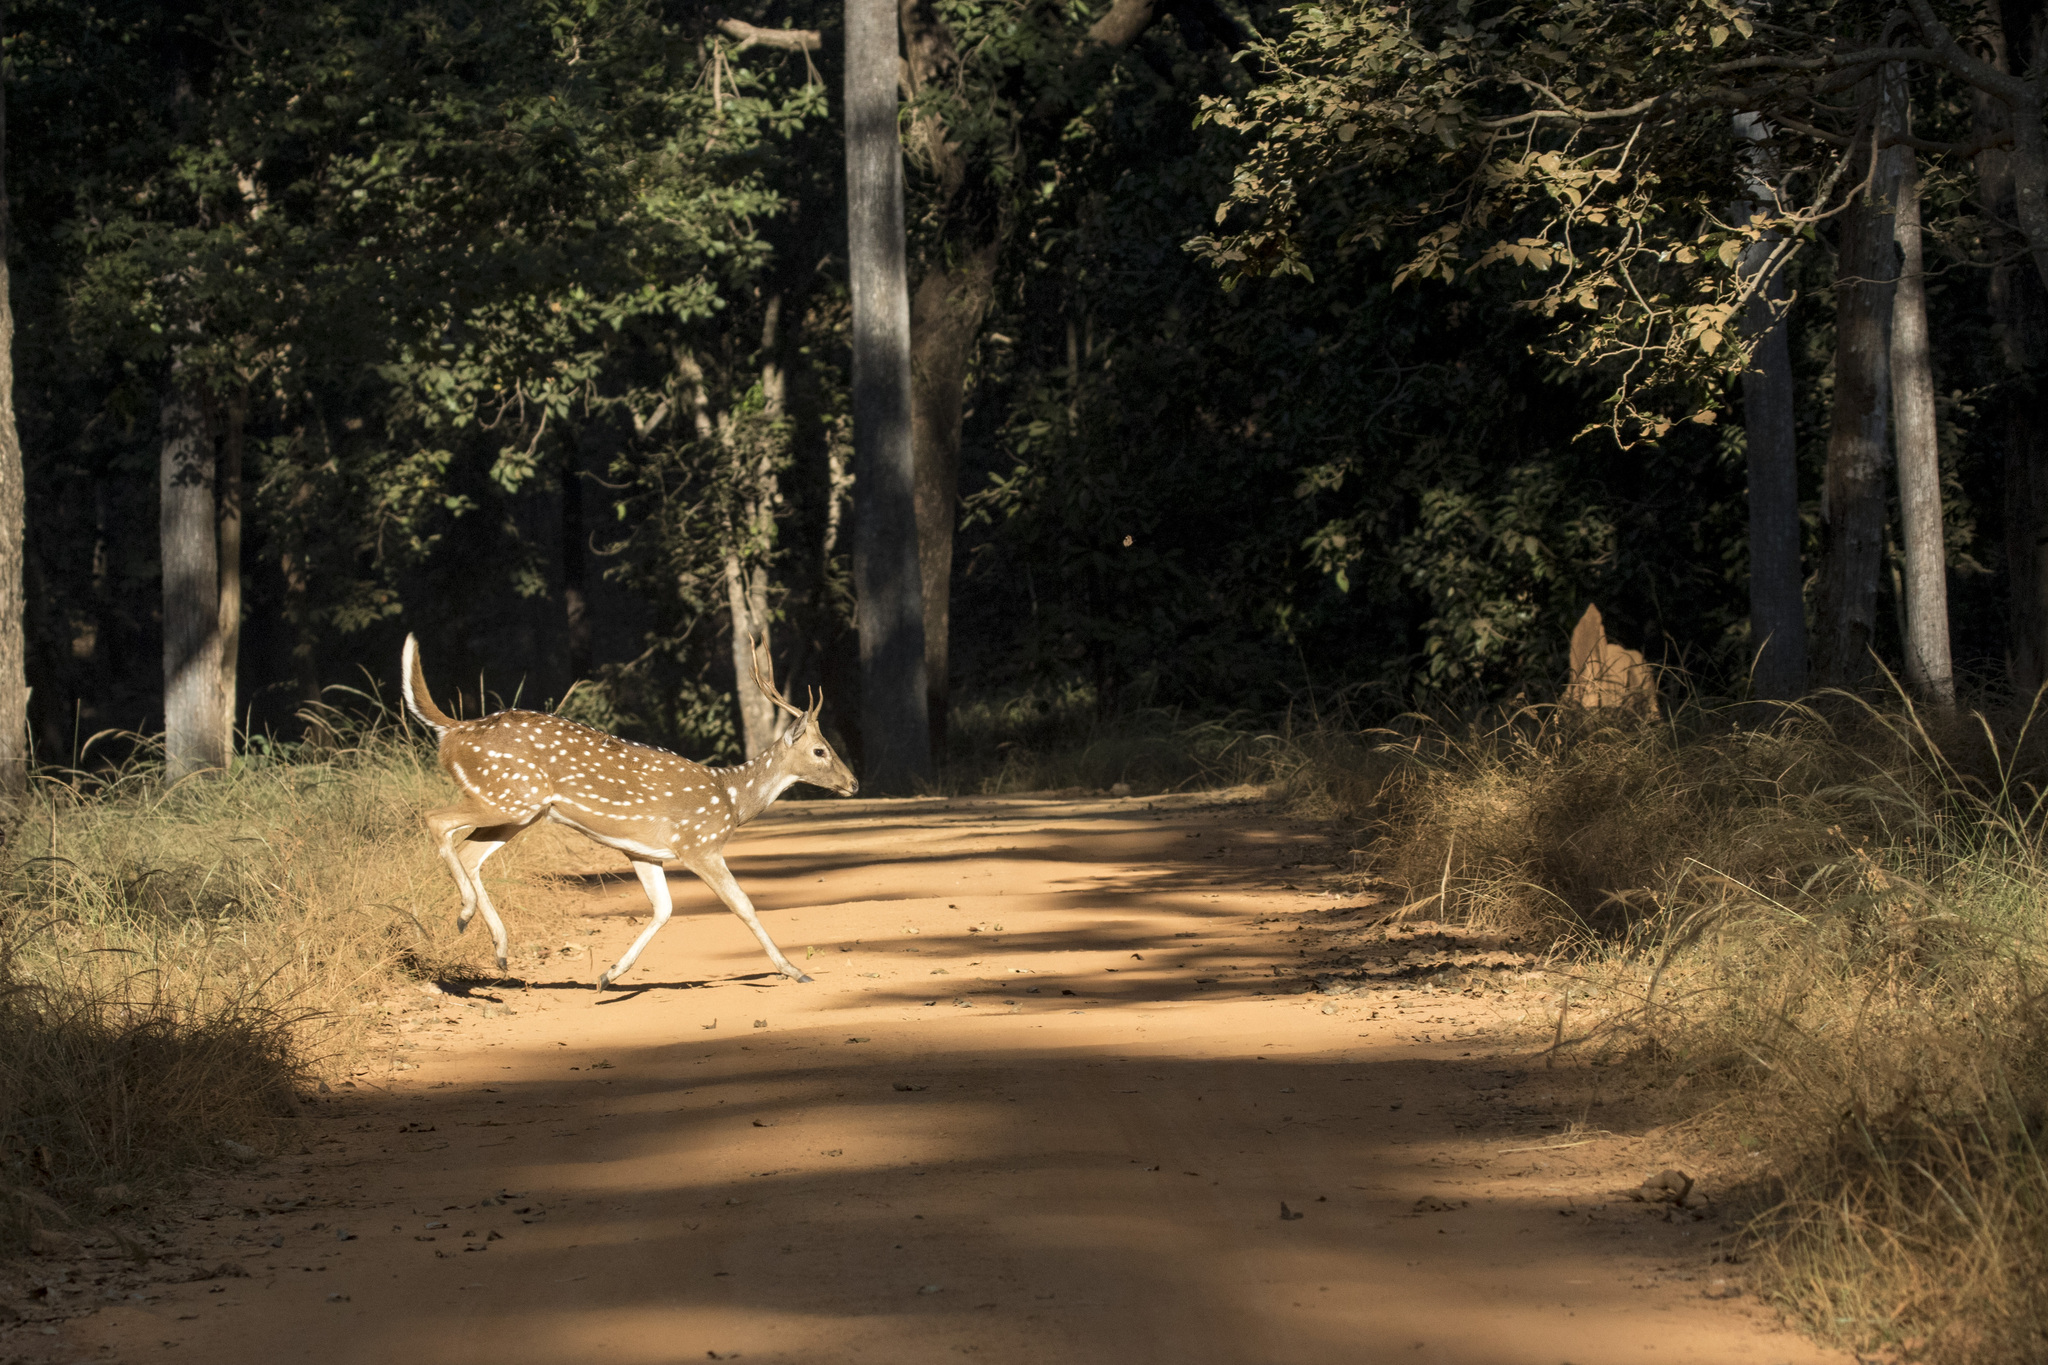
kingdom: Animalia
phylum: Chordata
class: Mammalia
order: Artiodactyla
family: Cervidae
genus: Axis
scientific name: Axis axis
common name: Chital
